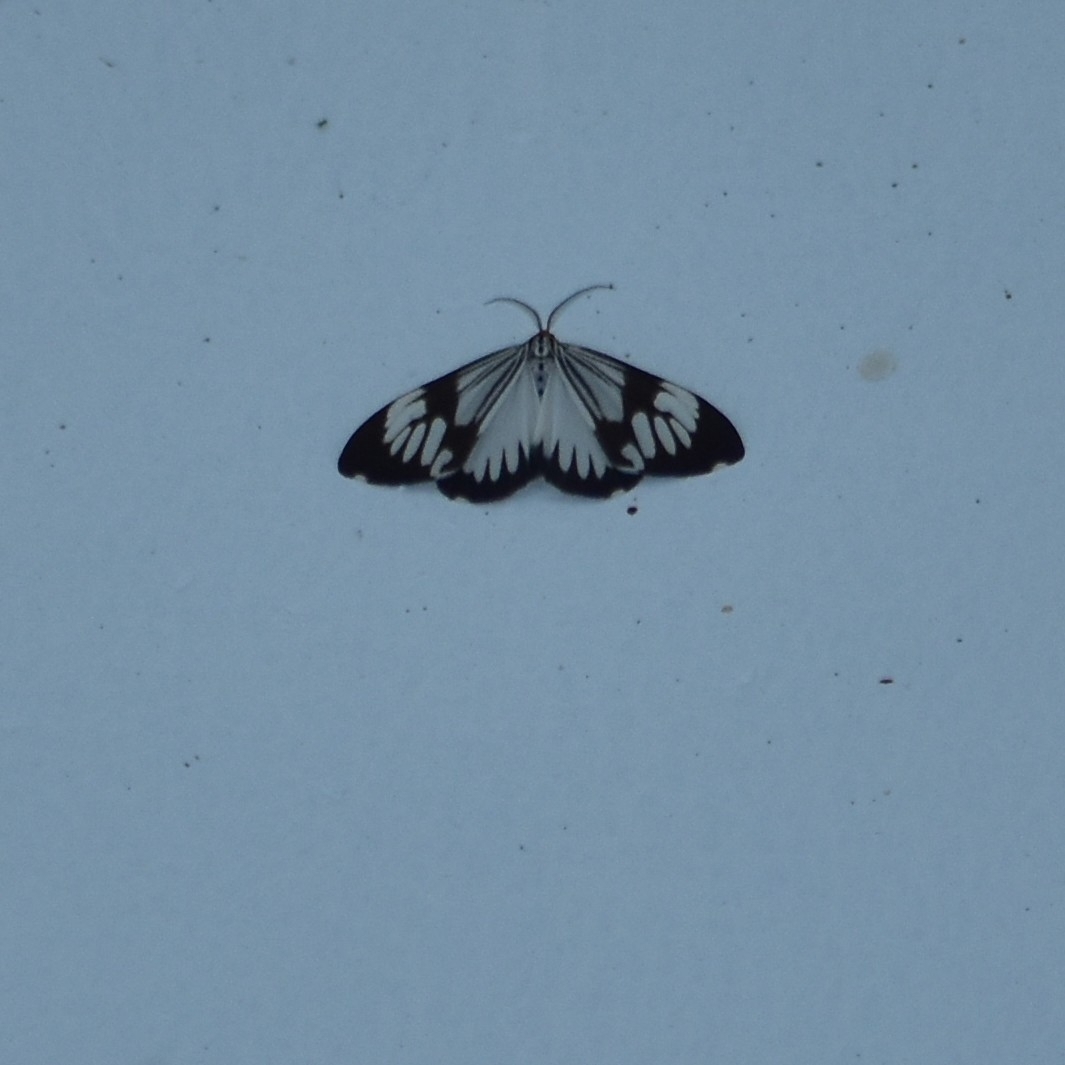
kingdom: Animalia
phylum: Arthropoda
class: Insecta
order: Lepidoptera
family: Erebidae
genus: Nyctemera
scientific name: Nyctemera coleta
